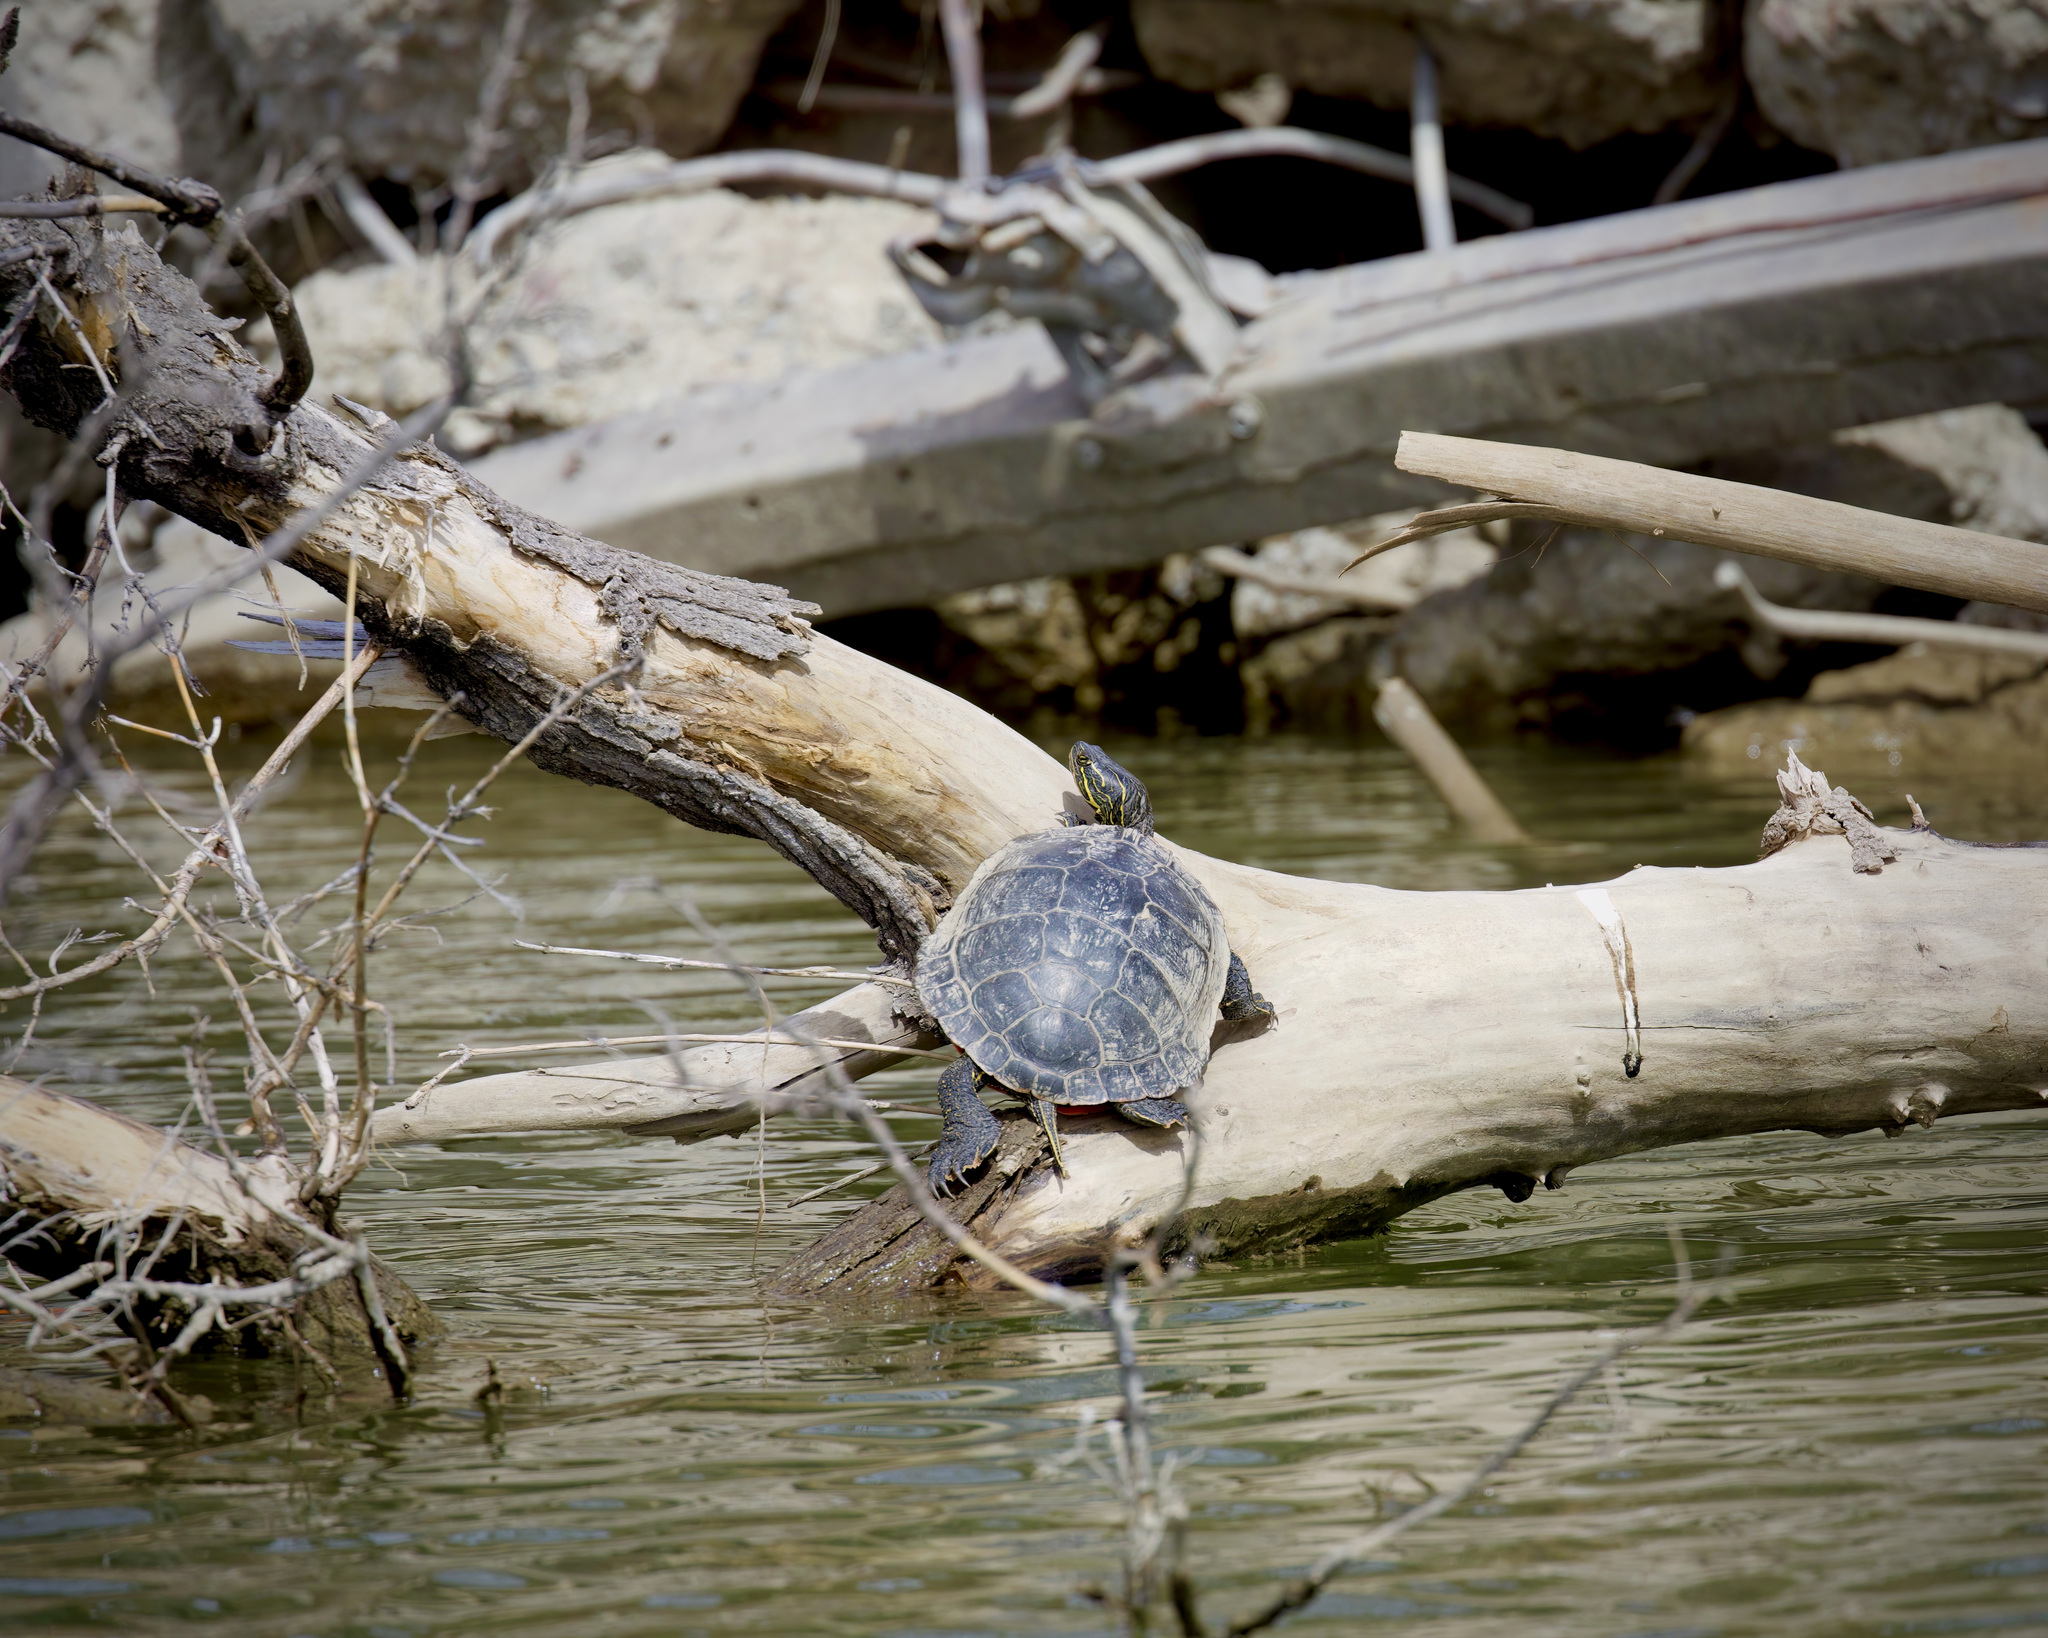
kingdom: Animalia
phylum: Chordata
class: Testudines
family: Emydidae
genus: Chrysemys
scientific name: Chrysemys picta
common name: Painted turtle
